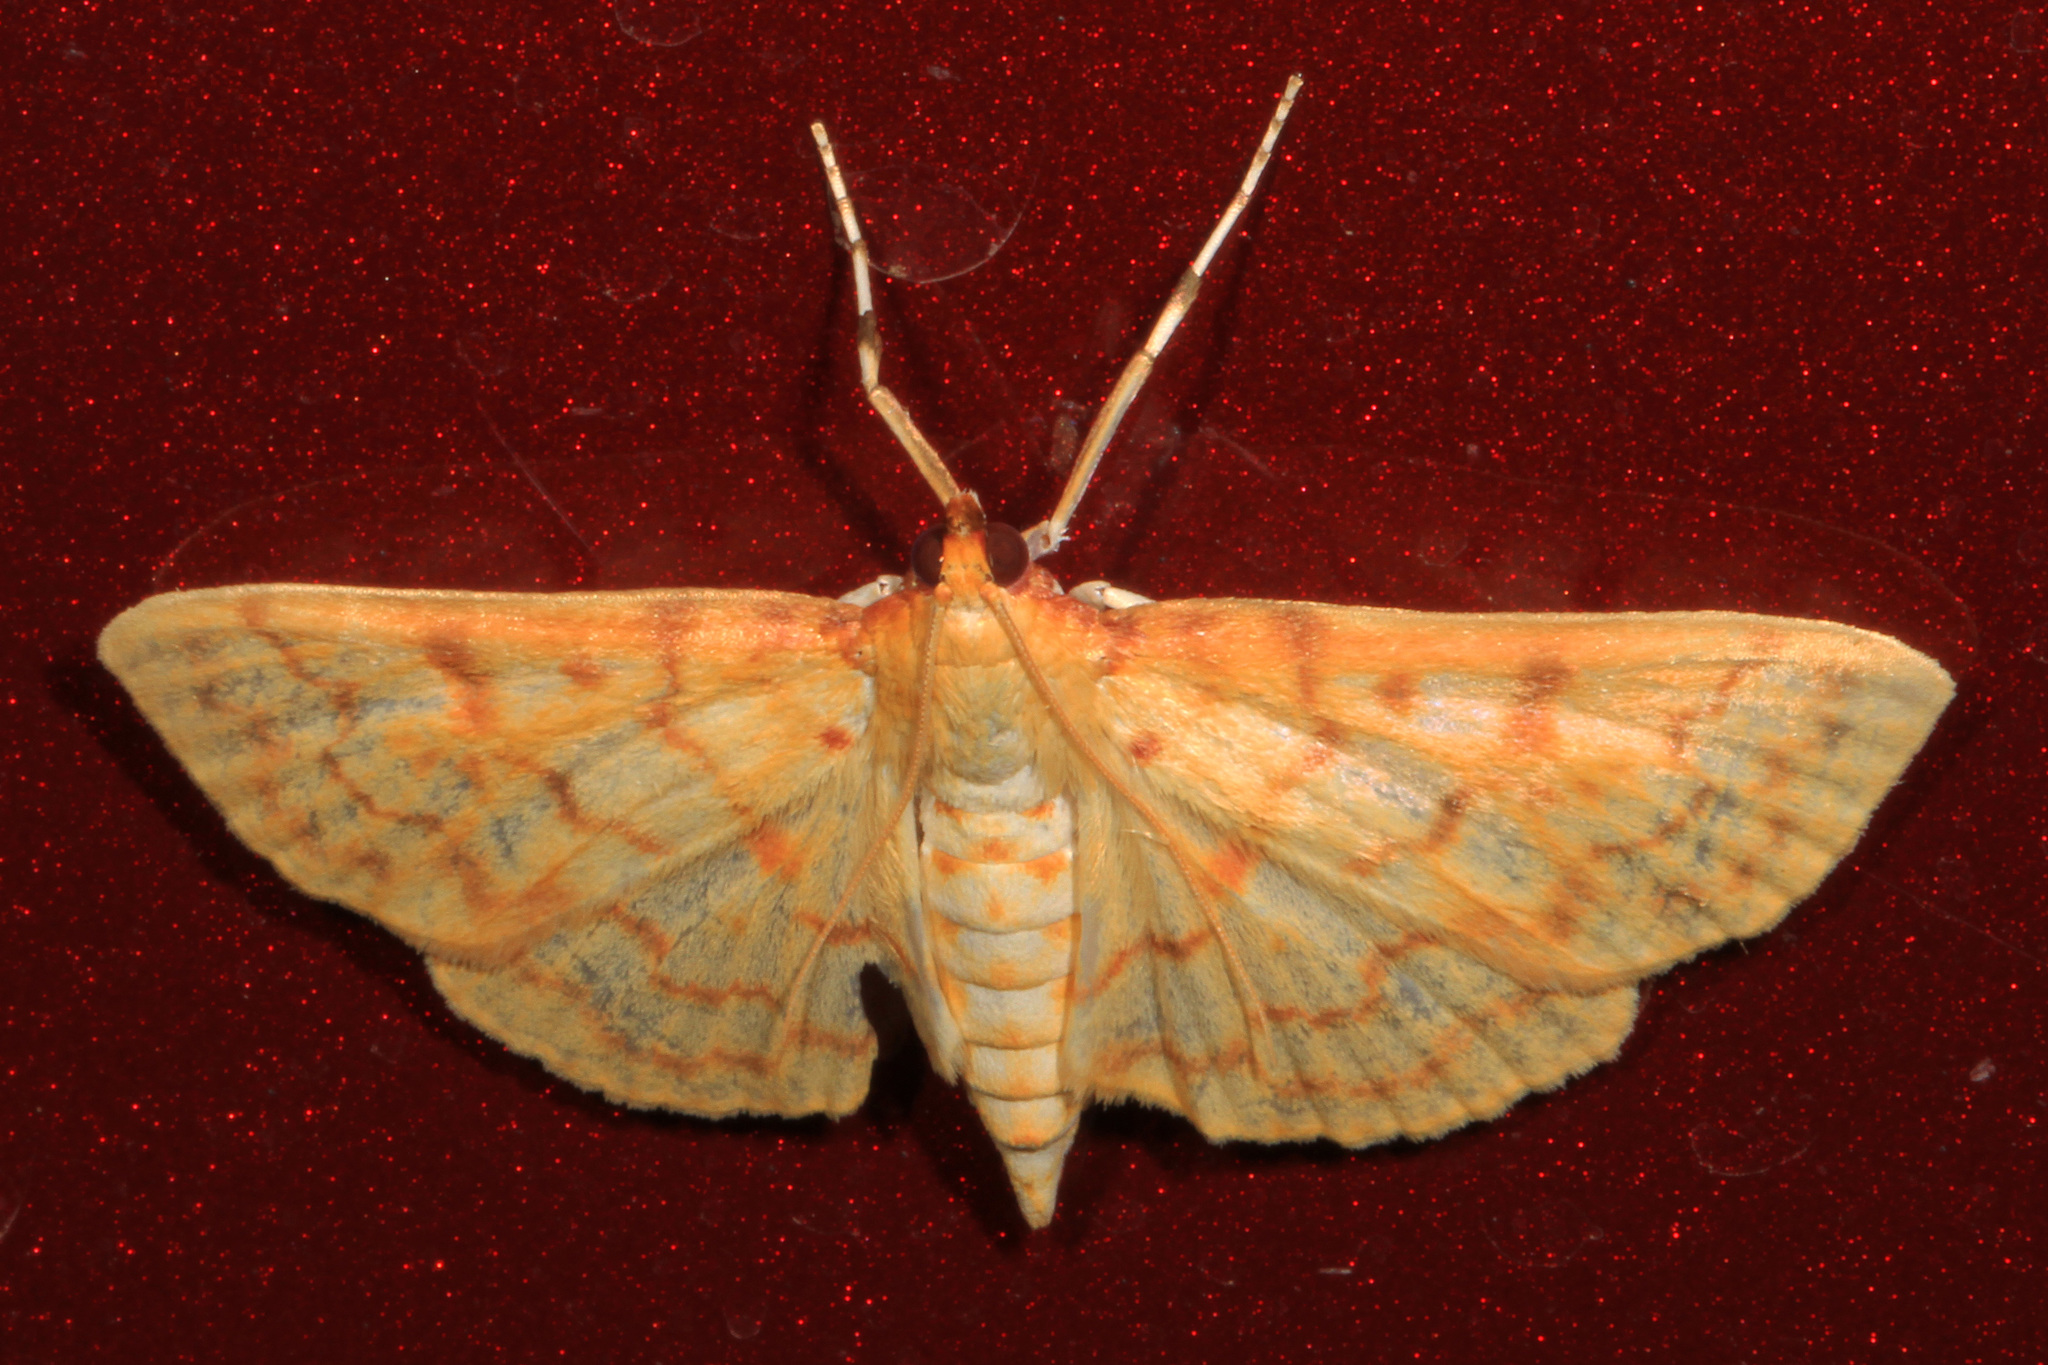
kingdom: Animalia
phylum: Arthropoda
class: Insecta
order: Lepidoptera
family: Crambidae
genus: Polygrammodes
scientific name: Polygrammodes flavidalis
